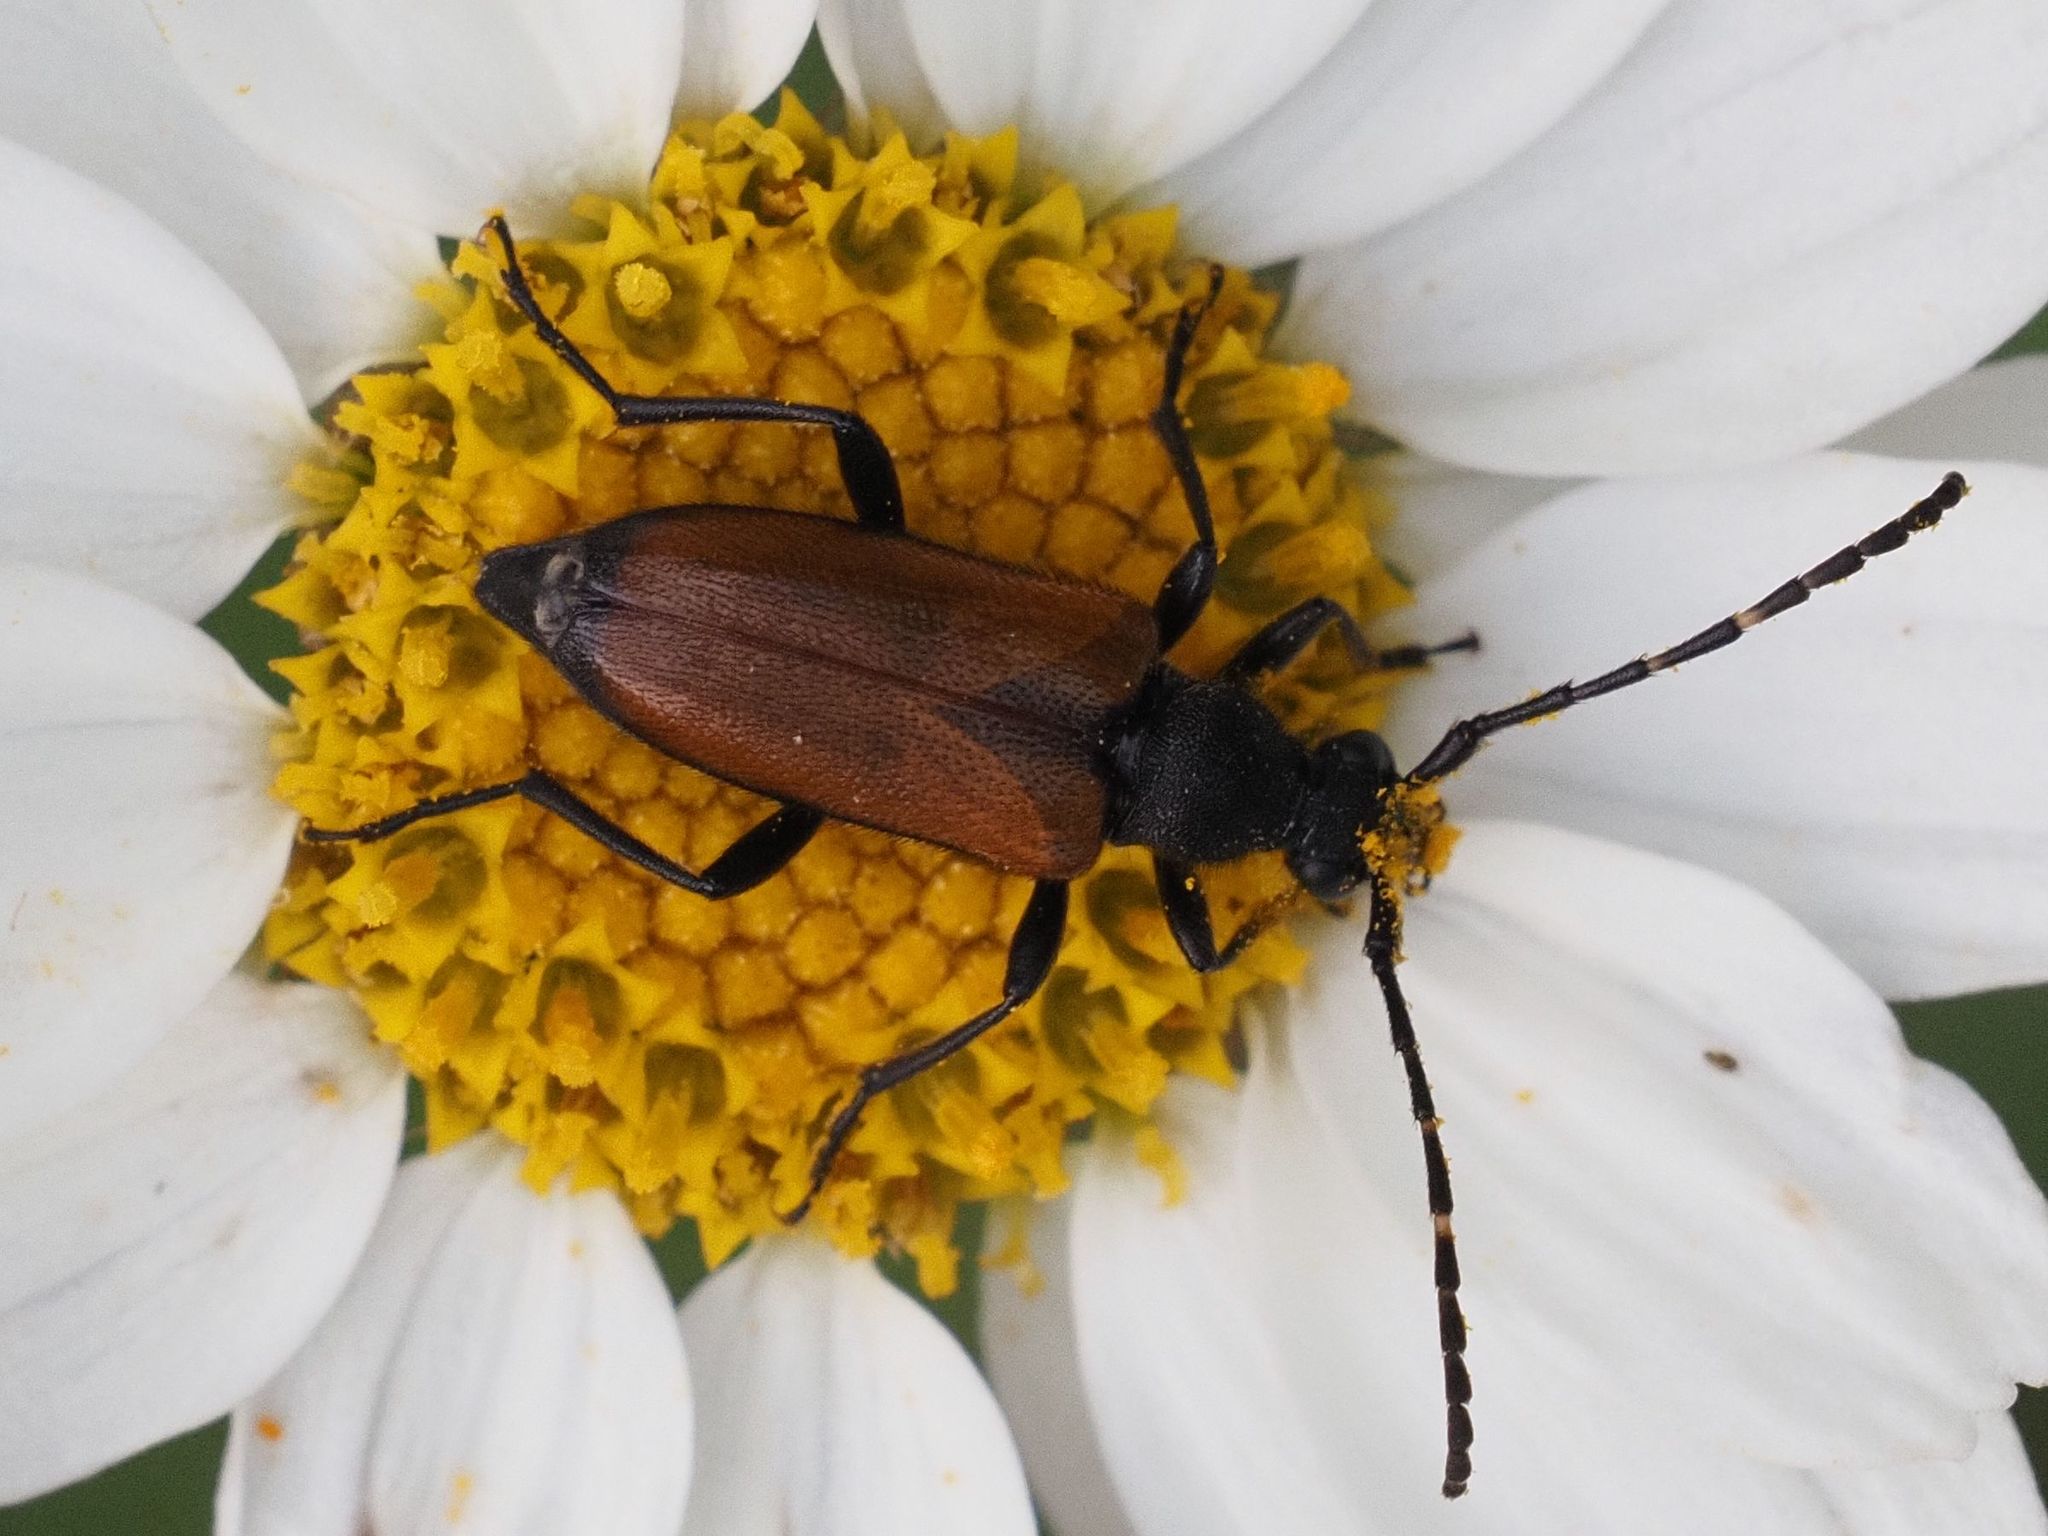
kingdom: Animalia
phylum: Arthropoda
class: Insecta
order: Coleoptera
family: Cerambycidae
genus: Paracorymbia
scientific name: Paracorymbia maculicornis
